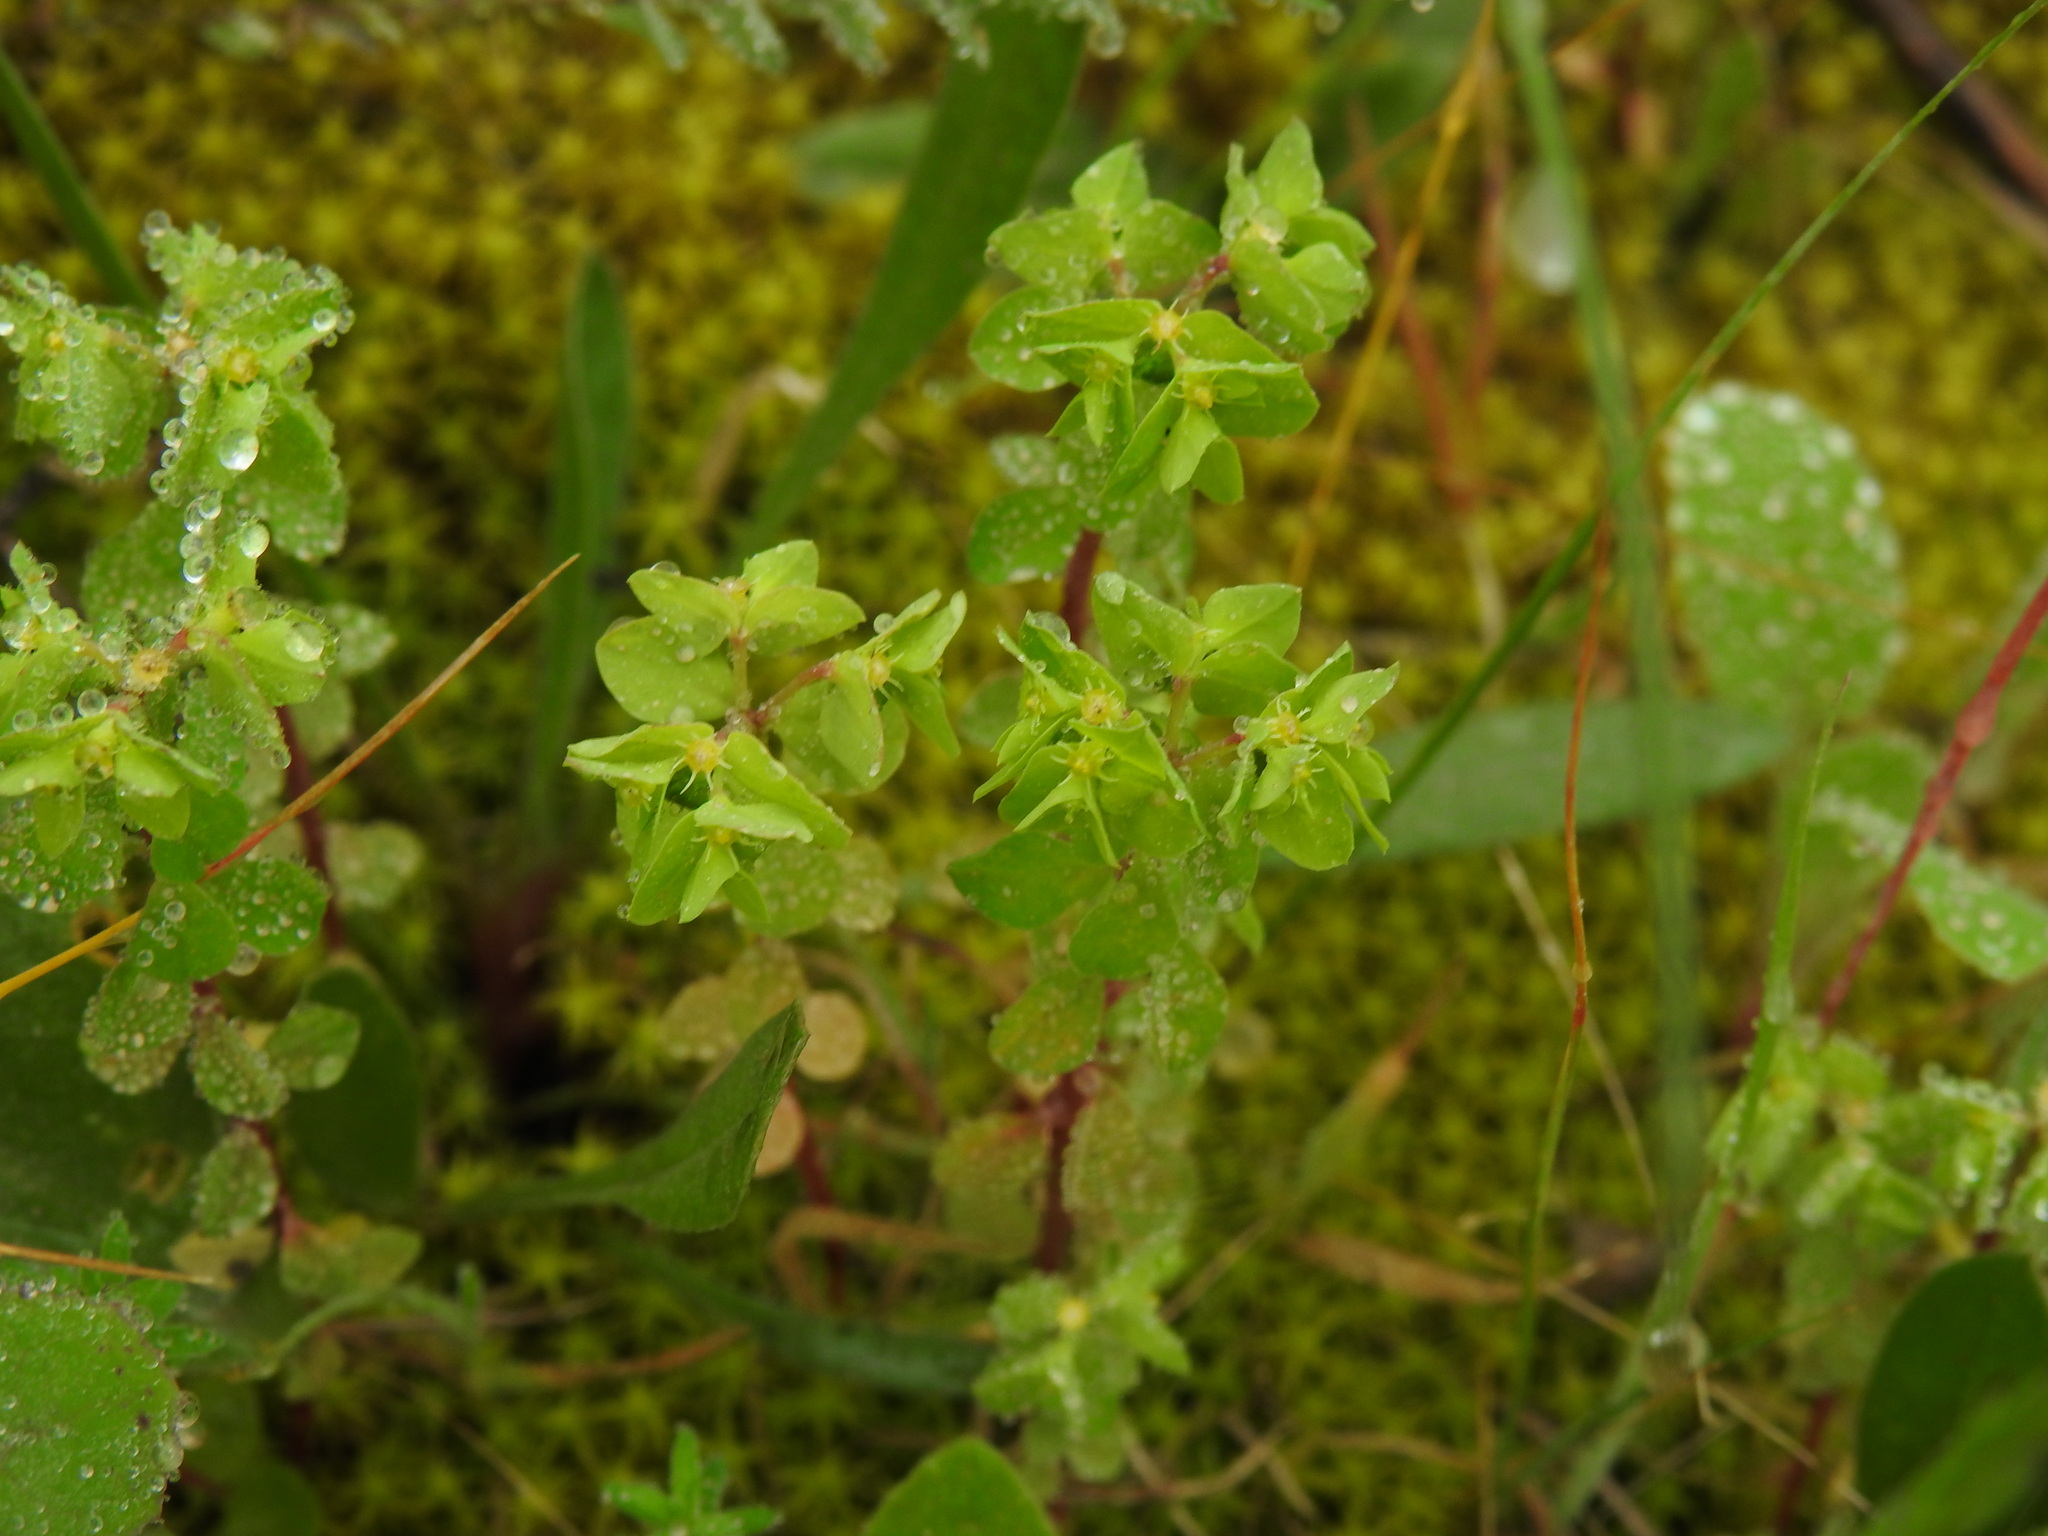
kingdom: Plantae
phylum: Tracheophyta
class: Magnoliopsida
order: Malpighiales
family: Euphorbiaceae
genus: Euphorbia
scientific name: Euphorbia peplus
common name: Petty spurge
